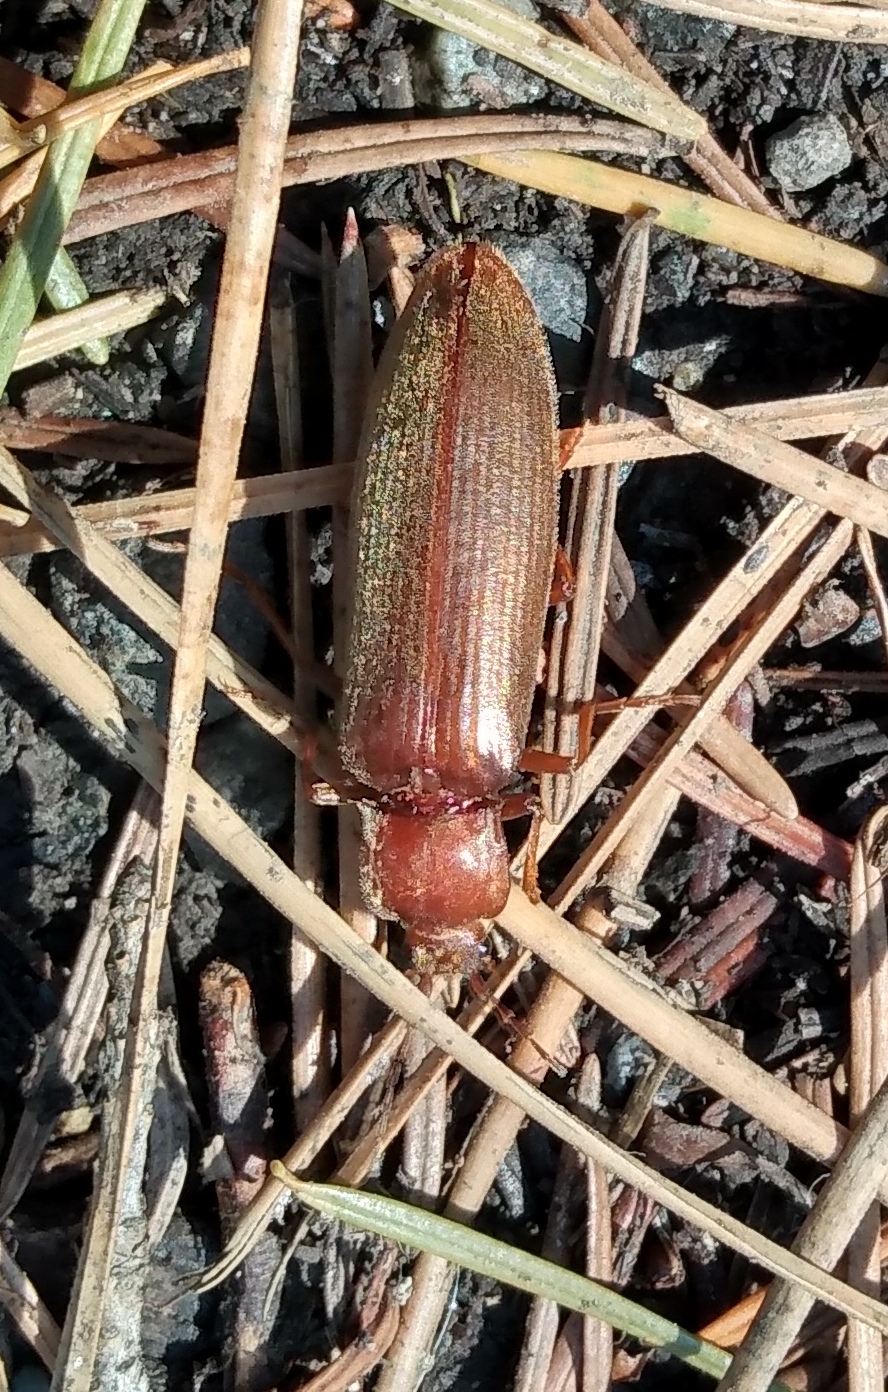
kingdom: Animalia
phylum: Arthropoda
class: Insecta
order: Coleoptera
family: Elateridae
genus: Athoplastus
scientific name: Athoplastus
